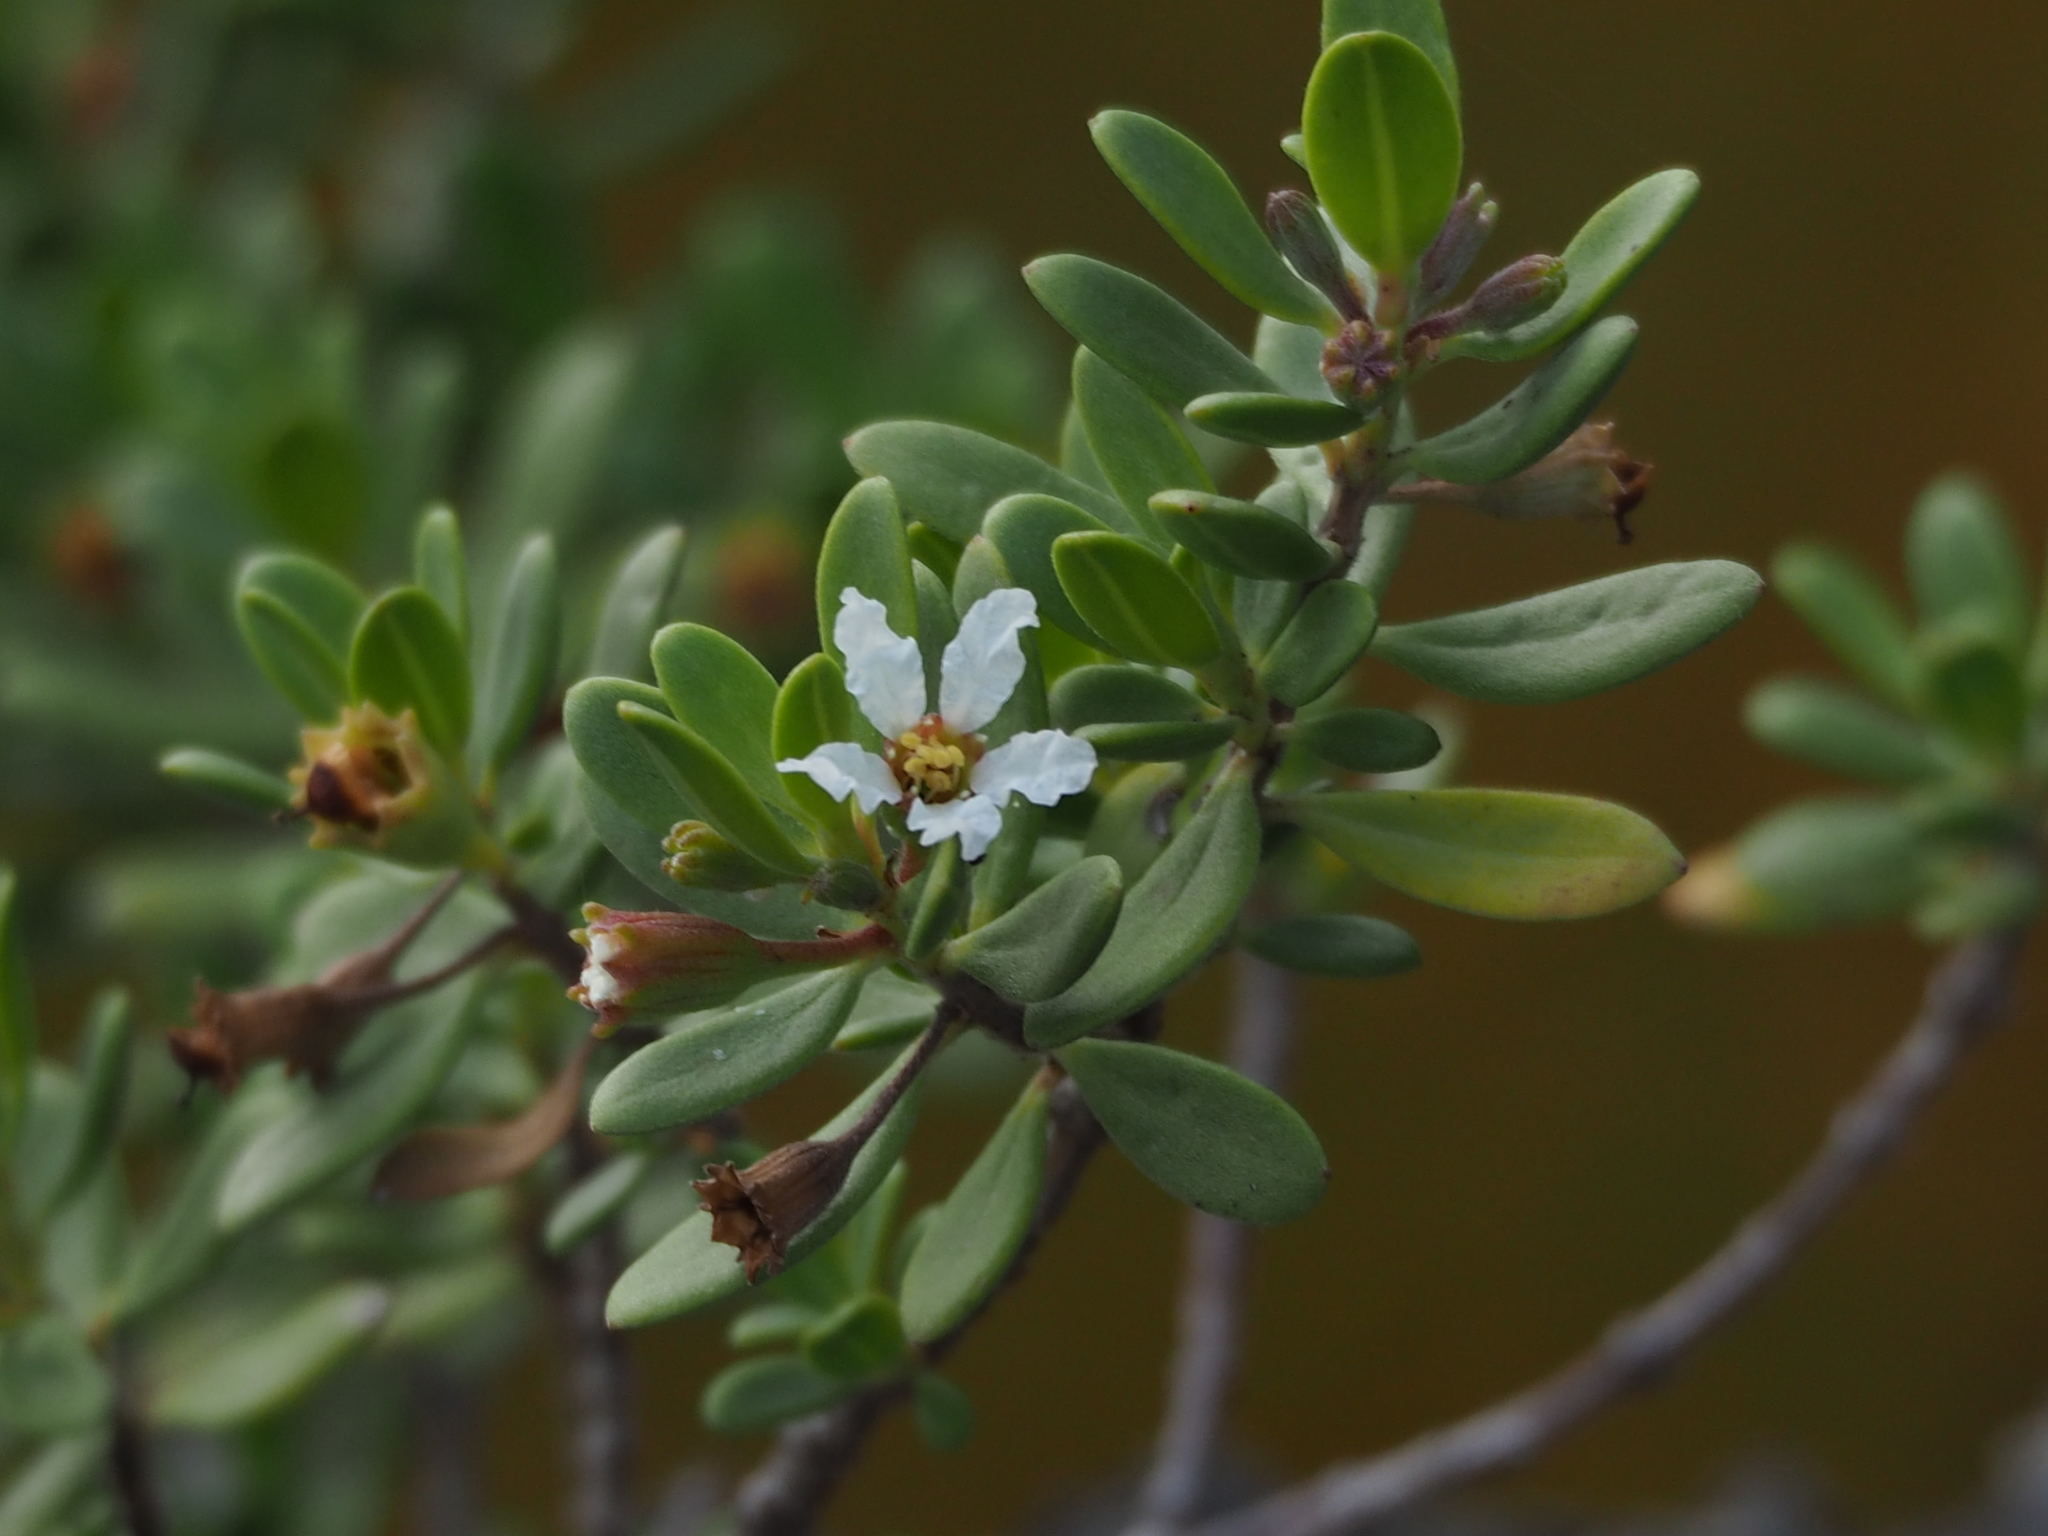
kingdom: Plantae
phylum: Tracheophyta
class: Magnoliopsida
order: Myrtales
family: Lythraceae
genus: Pemphis
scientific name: Pemphis acidula
